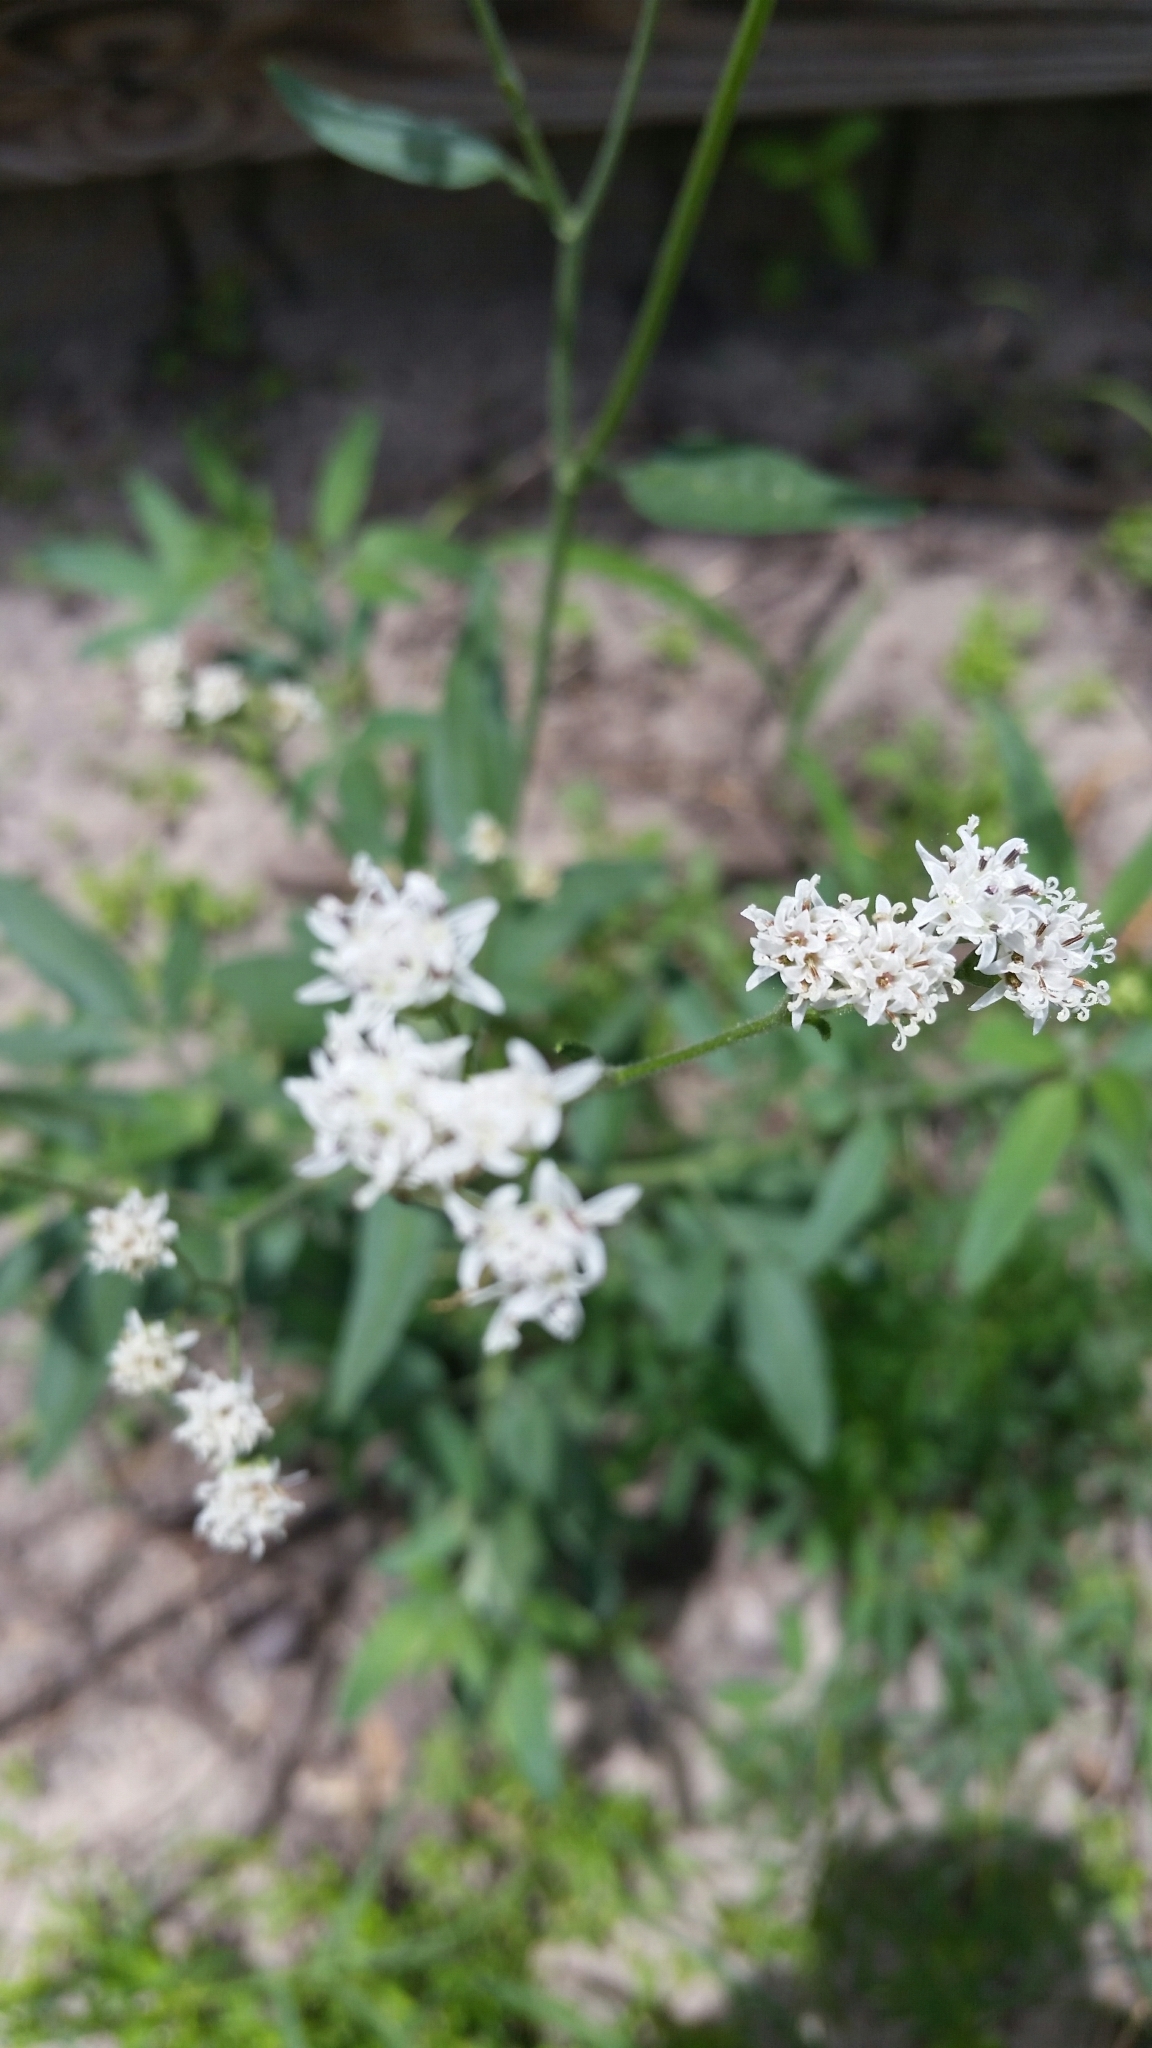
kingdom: Plantae
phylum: Tracheophyta
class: Magnoliopsida
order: Asterales
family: Asteraceae
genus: Florestina
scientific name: Florestina tripteris
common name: Sticky florestina
